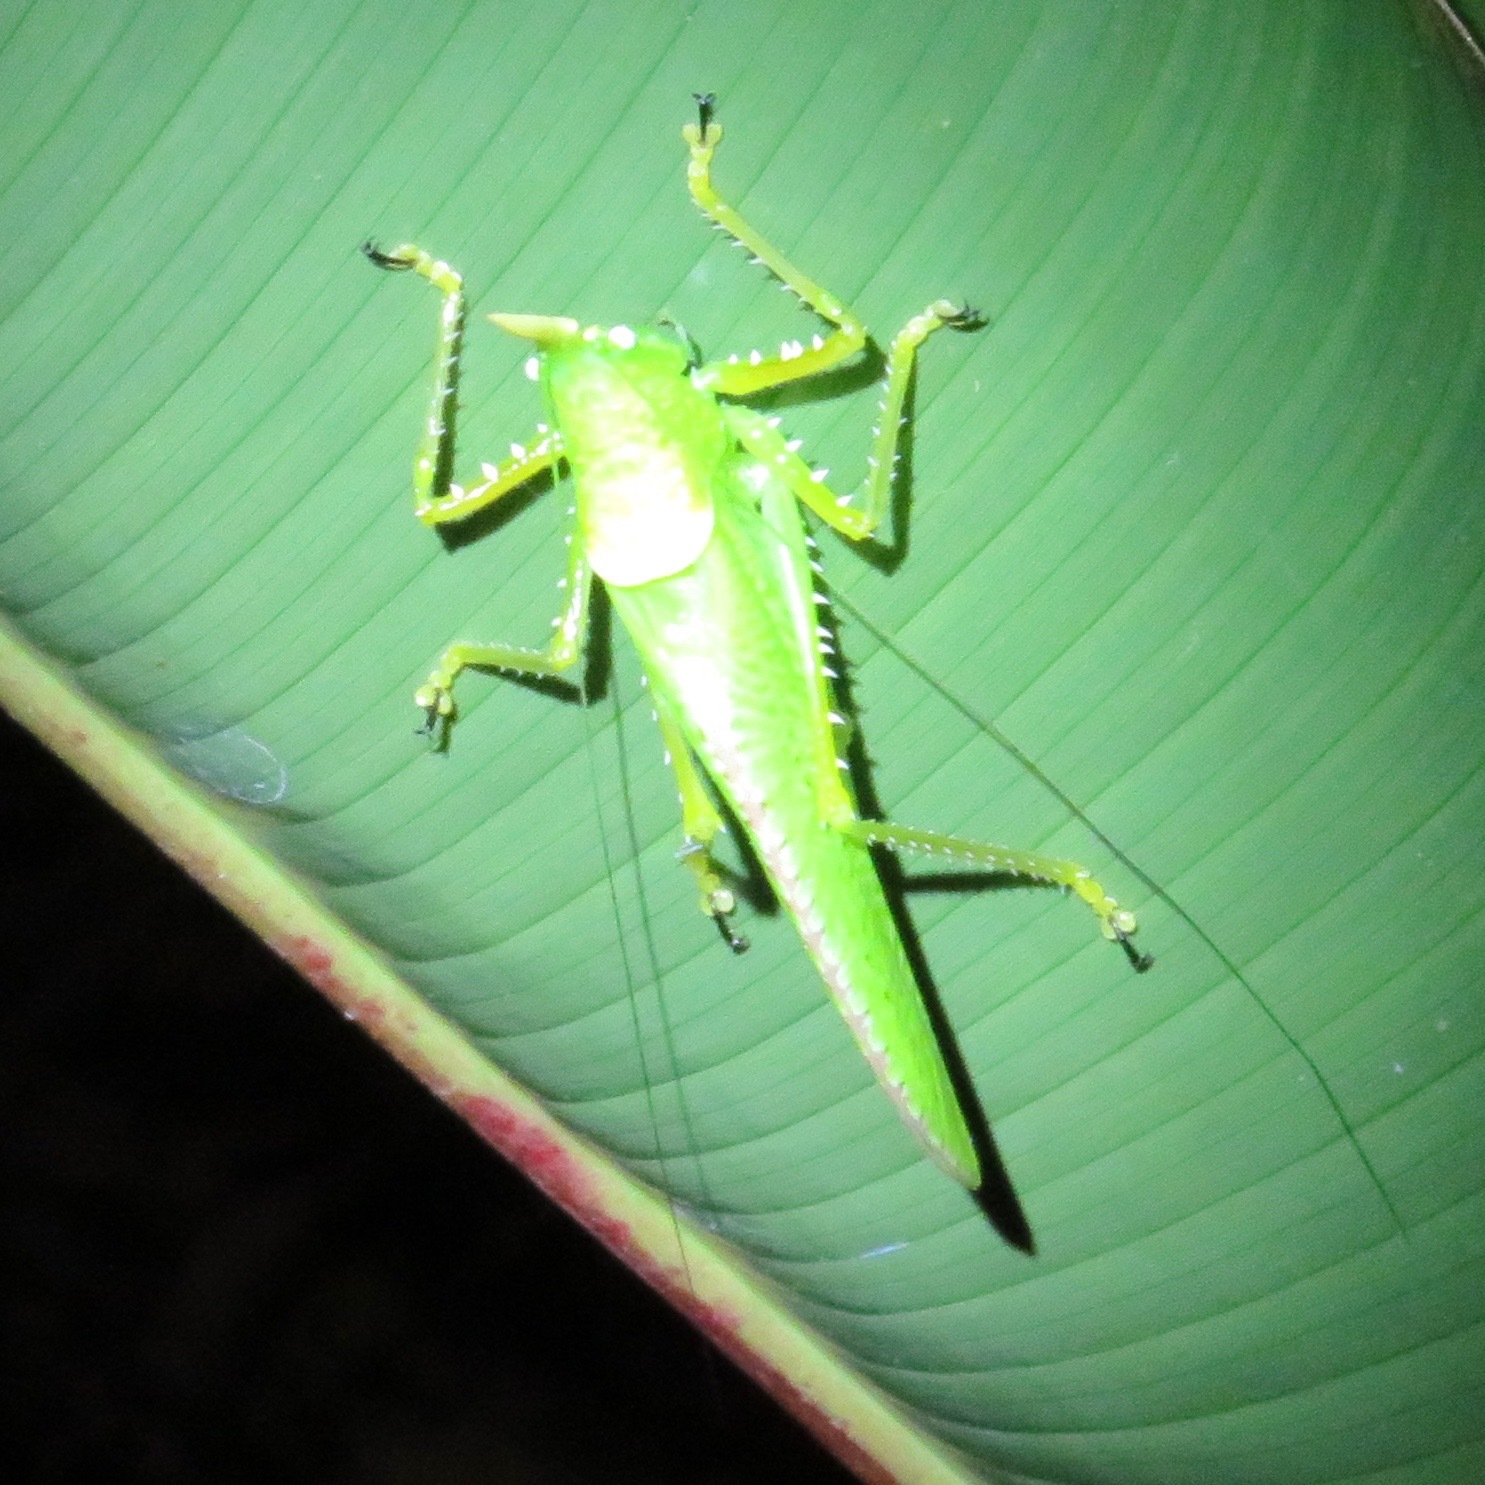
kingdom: Animalia
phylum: Arthropoda
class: Insecta
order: Orthoptera
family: Tettigoniidae
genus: Copiphora
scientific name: Copiphora rhinoceros
